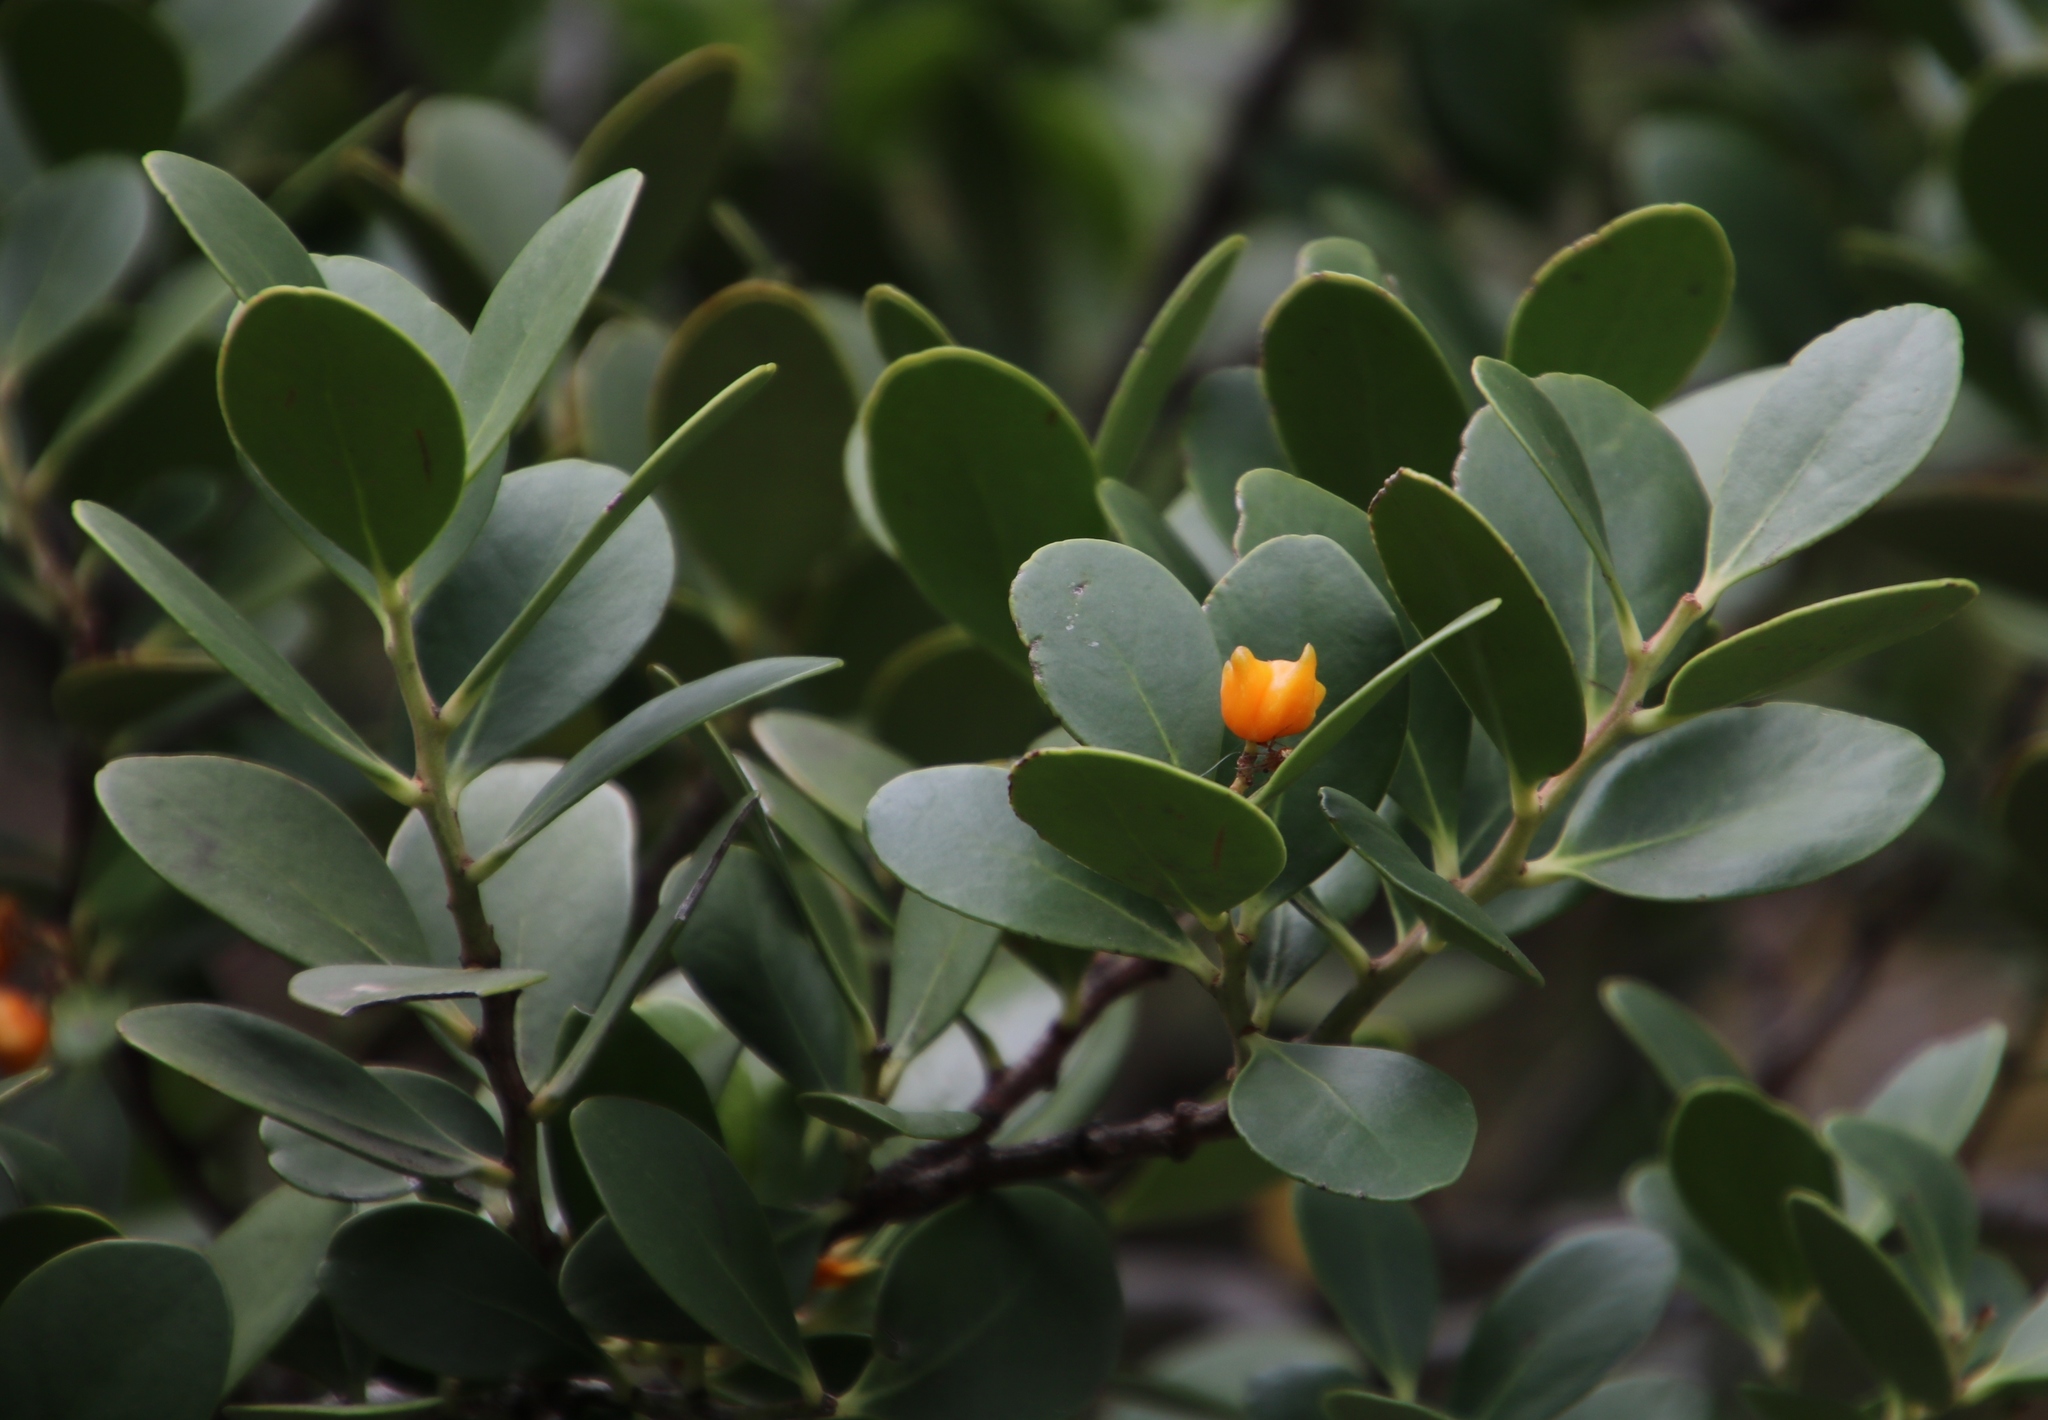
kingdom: Plantae
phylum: Tracheophyta
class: Magnoliopsida
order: Celastrales
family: Celastraceae
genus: Pterocelastrus
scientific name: Pterocelastrus tricuspidatus
